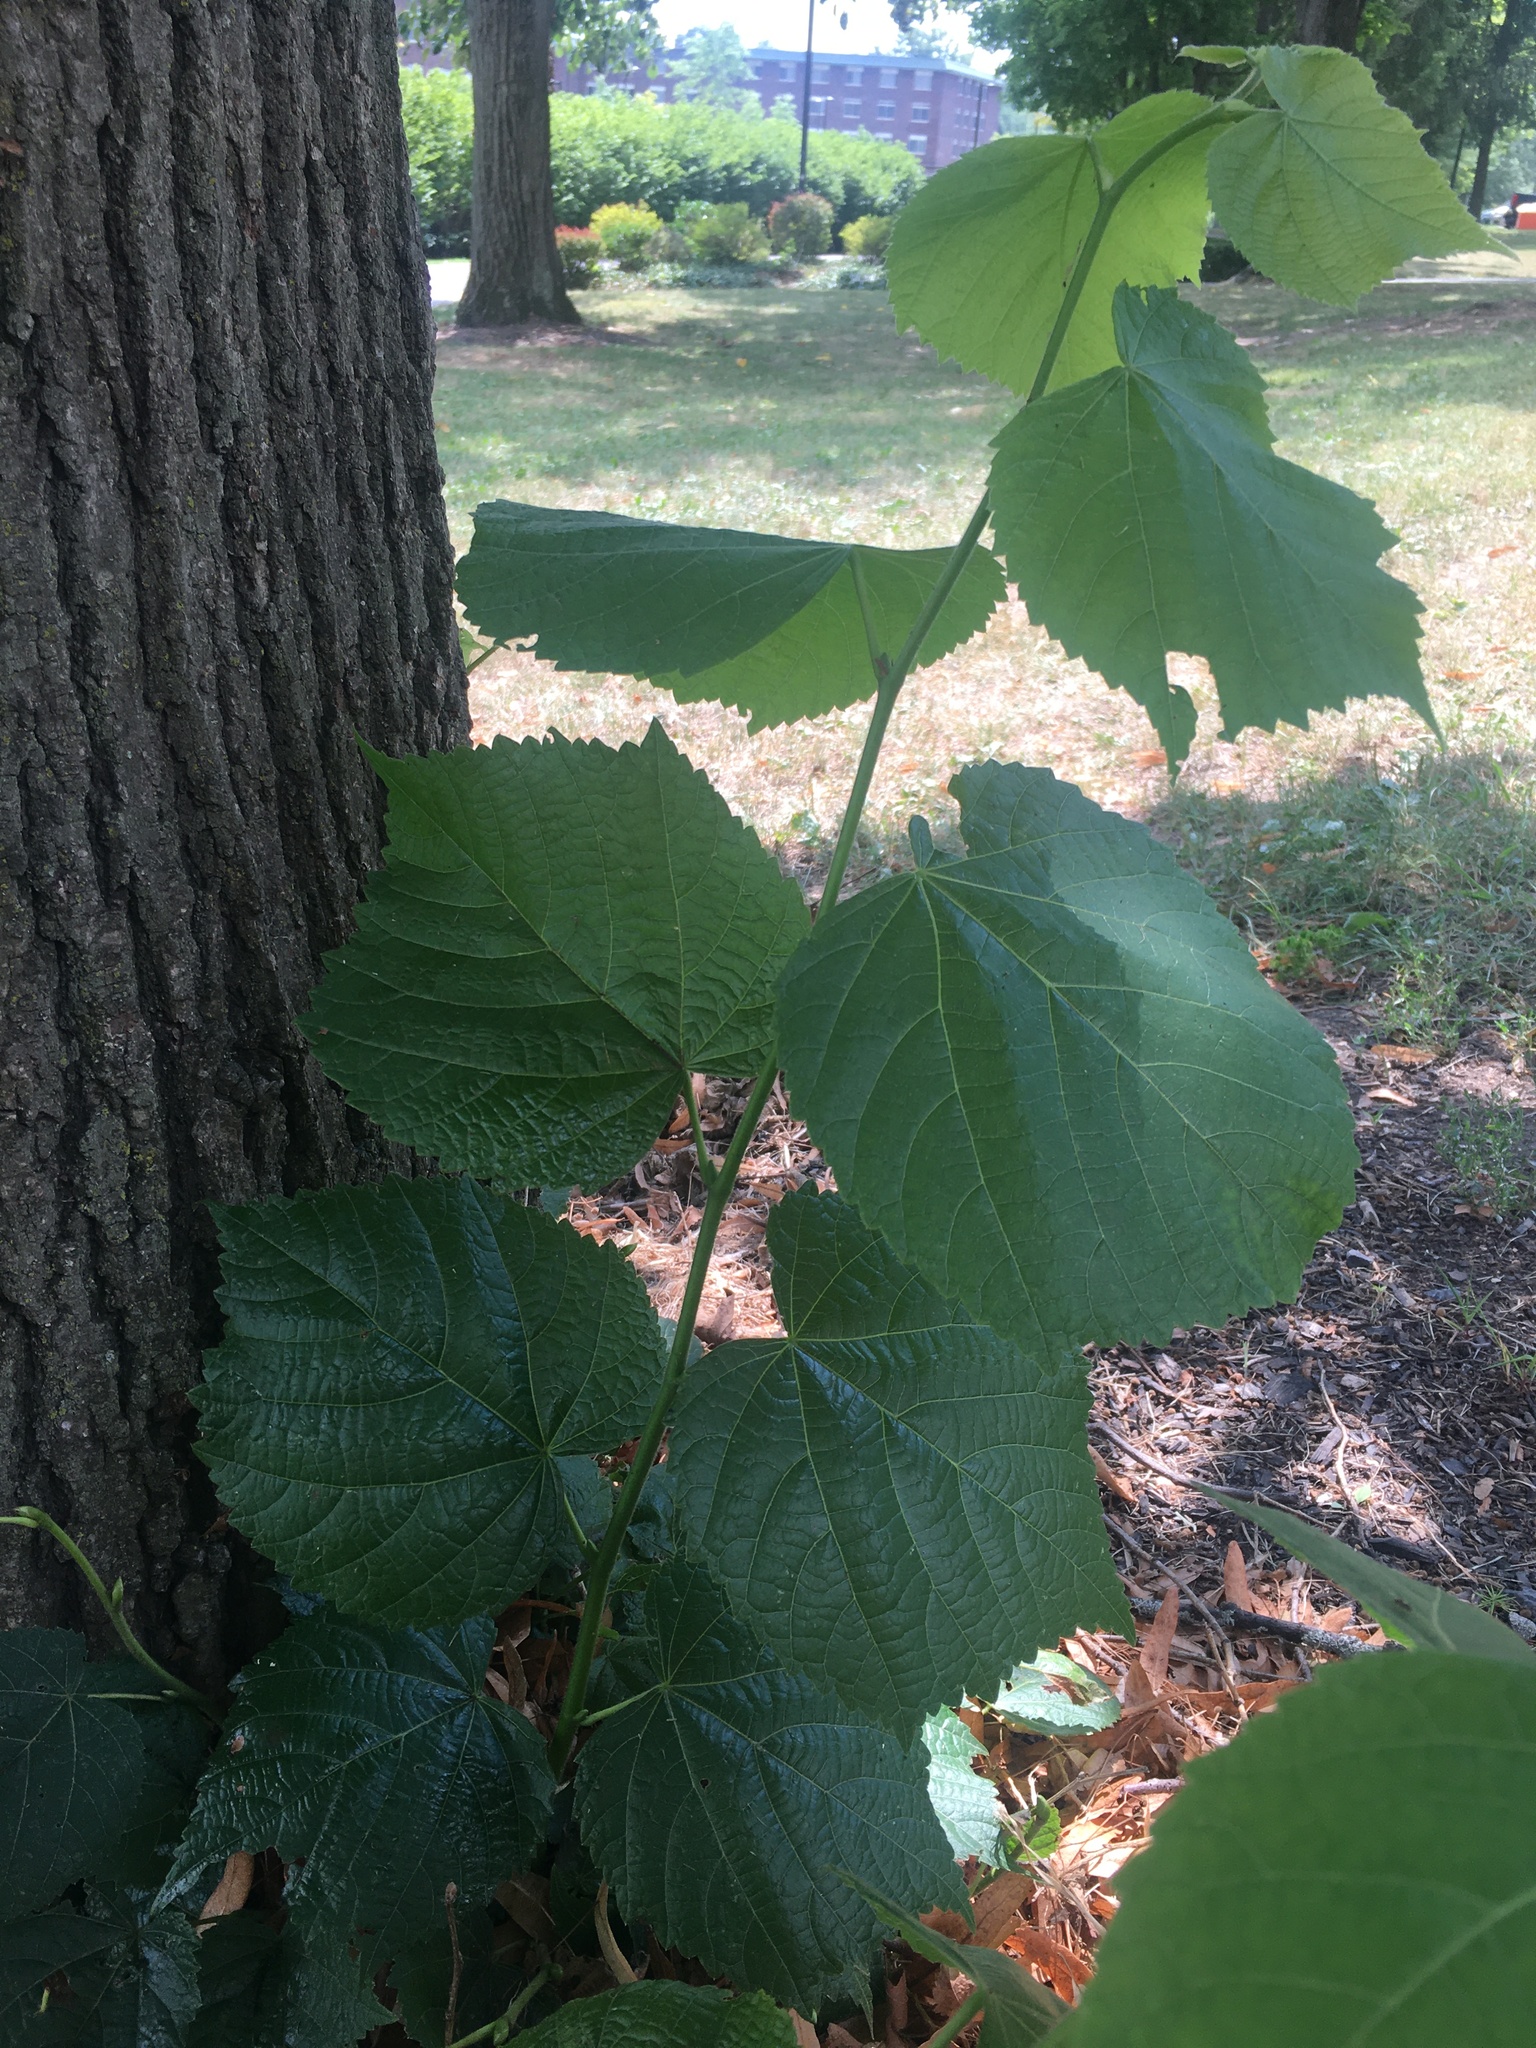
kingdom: Plantae
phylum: Tracheophyta
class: Magnoliopsida
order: Malvales
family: Malvaceae
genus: Tilia
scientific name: Tilia americana
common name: Basswood
